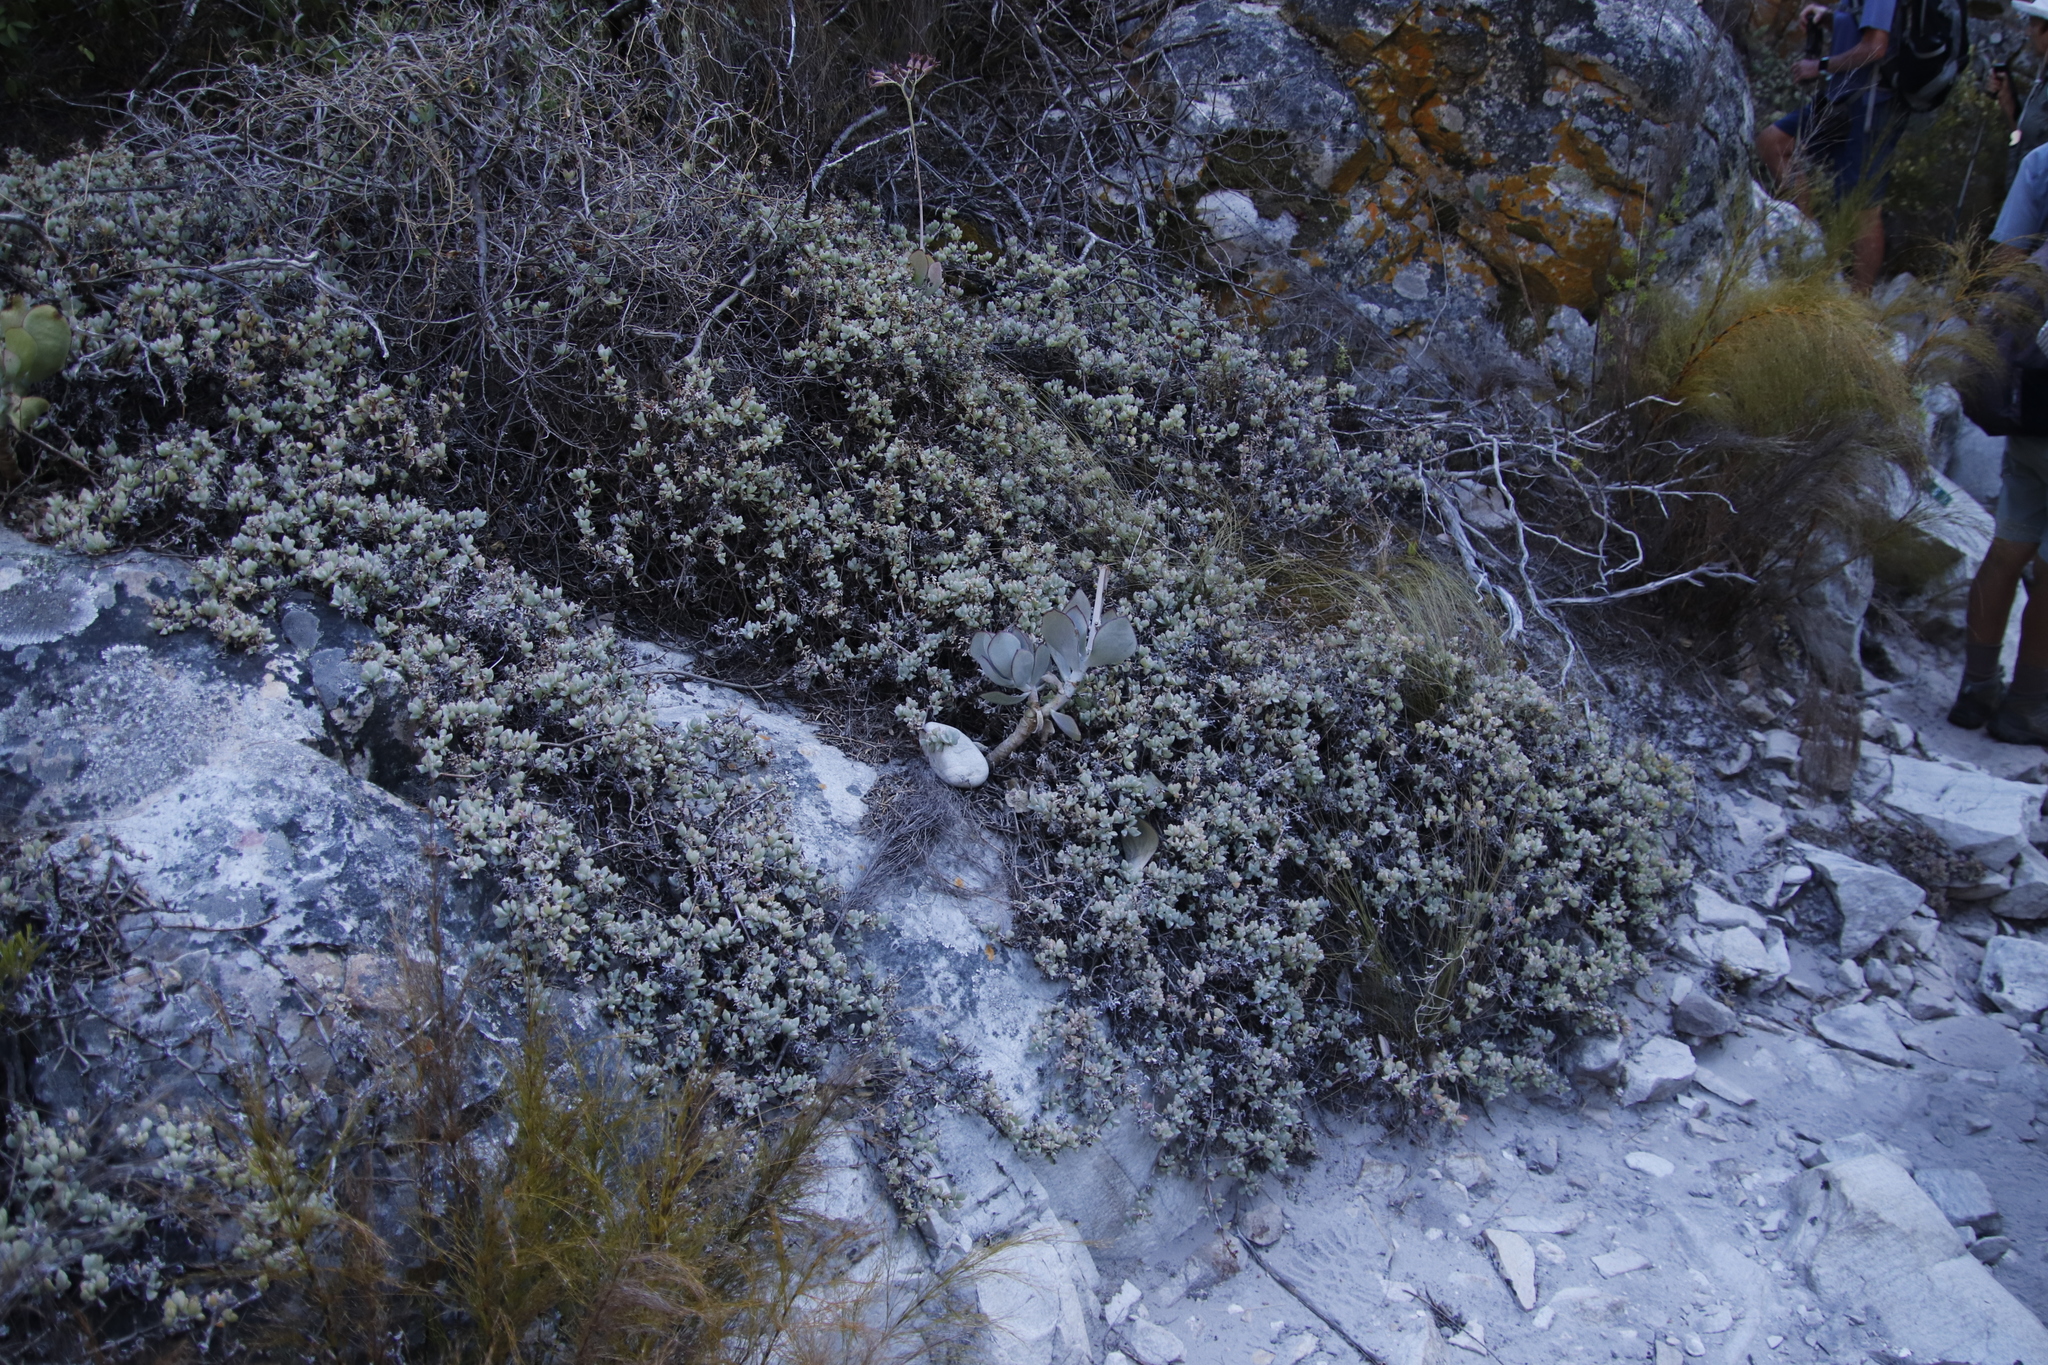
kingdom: Plantae
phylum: Tracheophyta
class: Magnoliopsida
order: Caryophyllales
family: Aizoaceae
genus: Oscularia
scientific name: Oscularia deltoides
